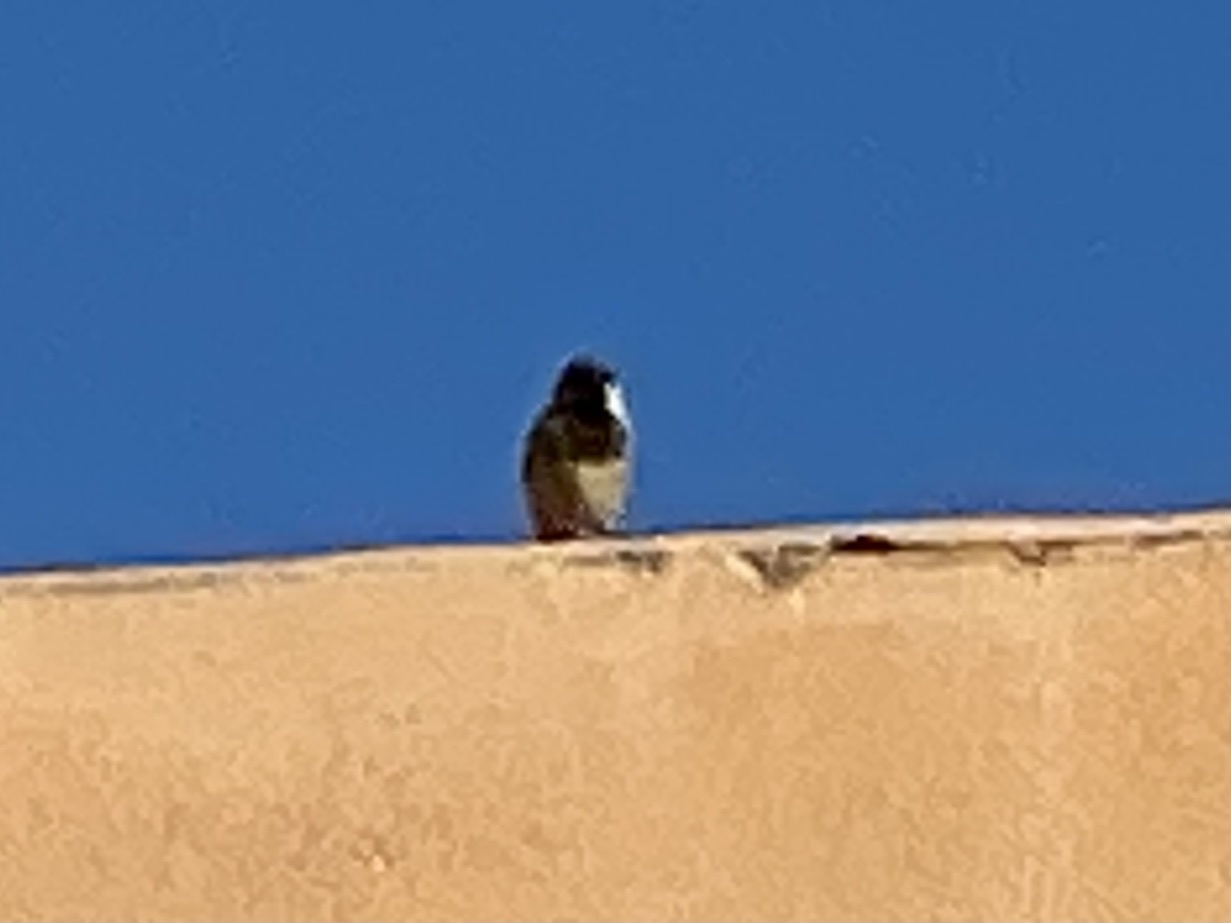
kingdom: Animalia
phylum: Chordata
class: Aves
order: Passeriformes
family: Passeridae
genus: Passer
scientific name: Passer domesticus
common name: House sparrow
